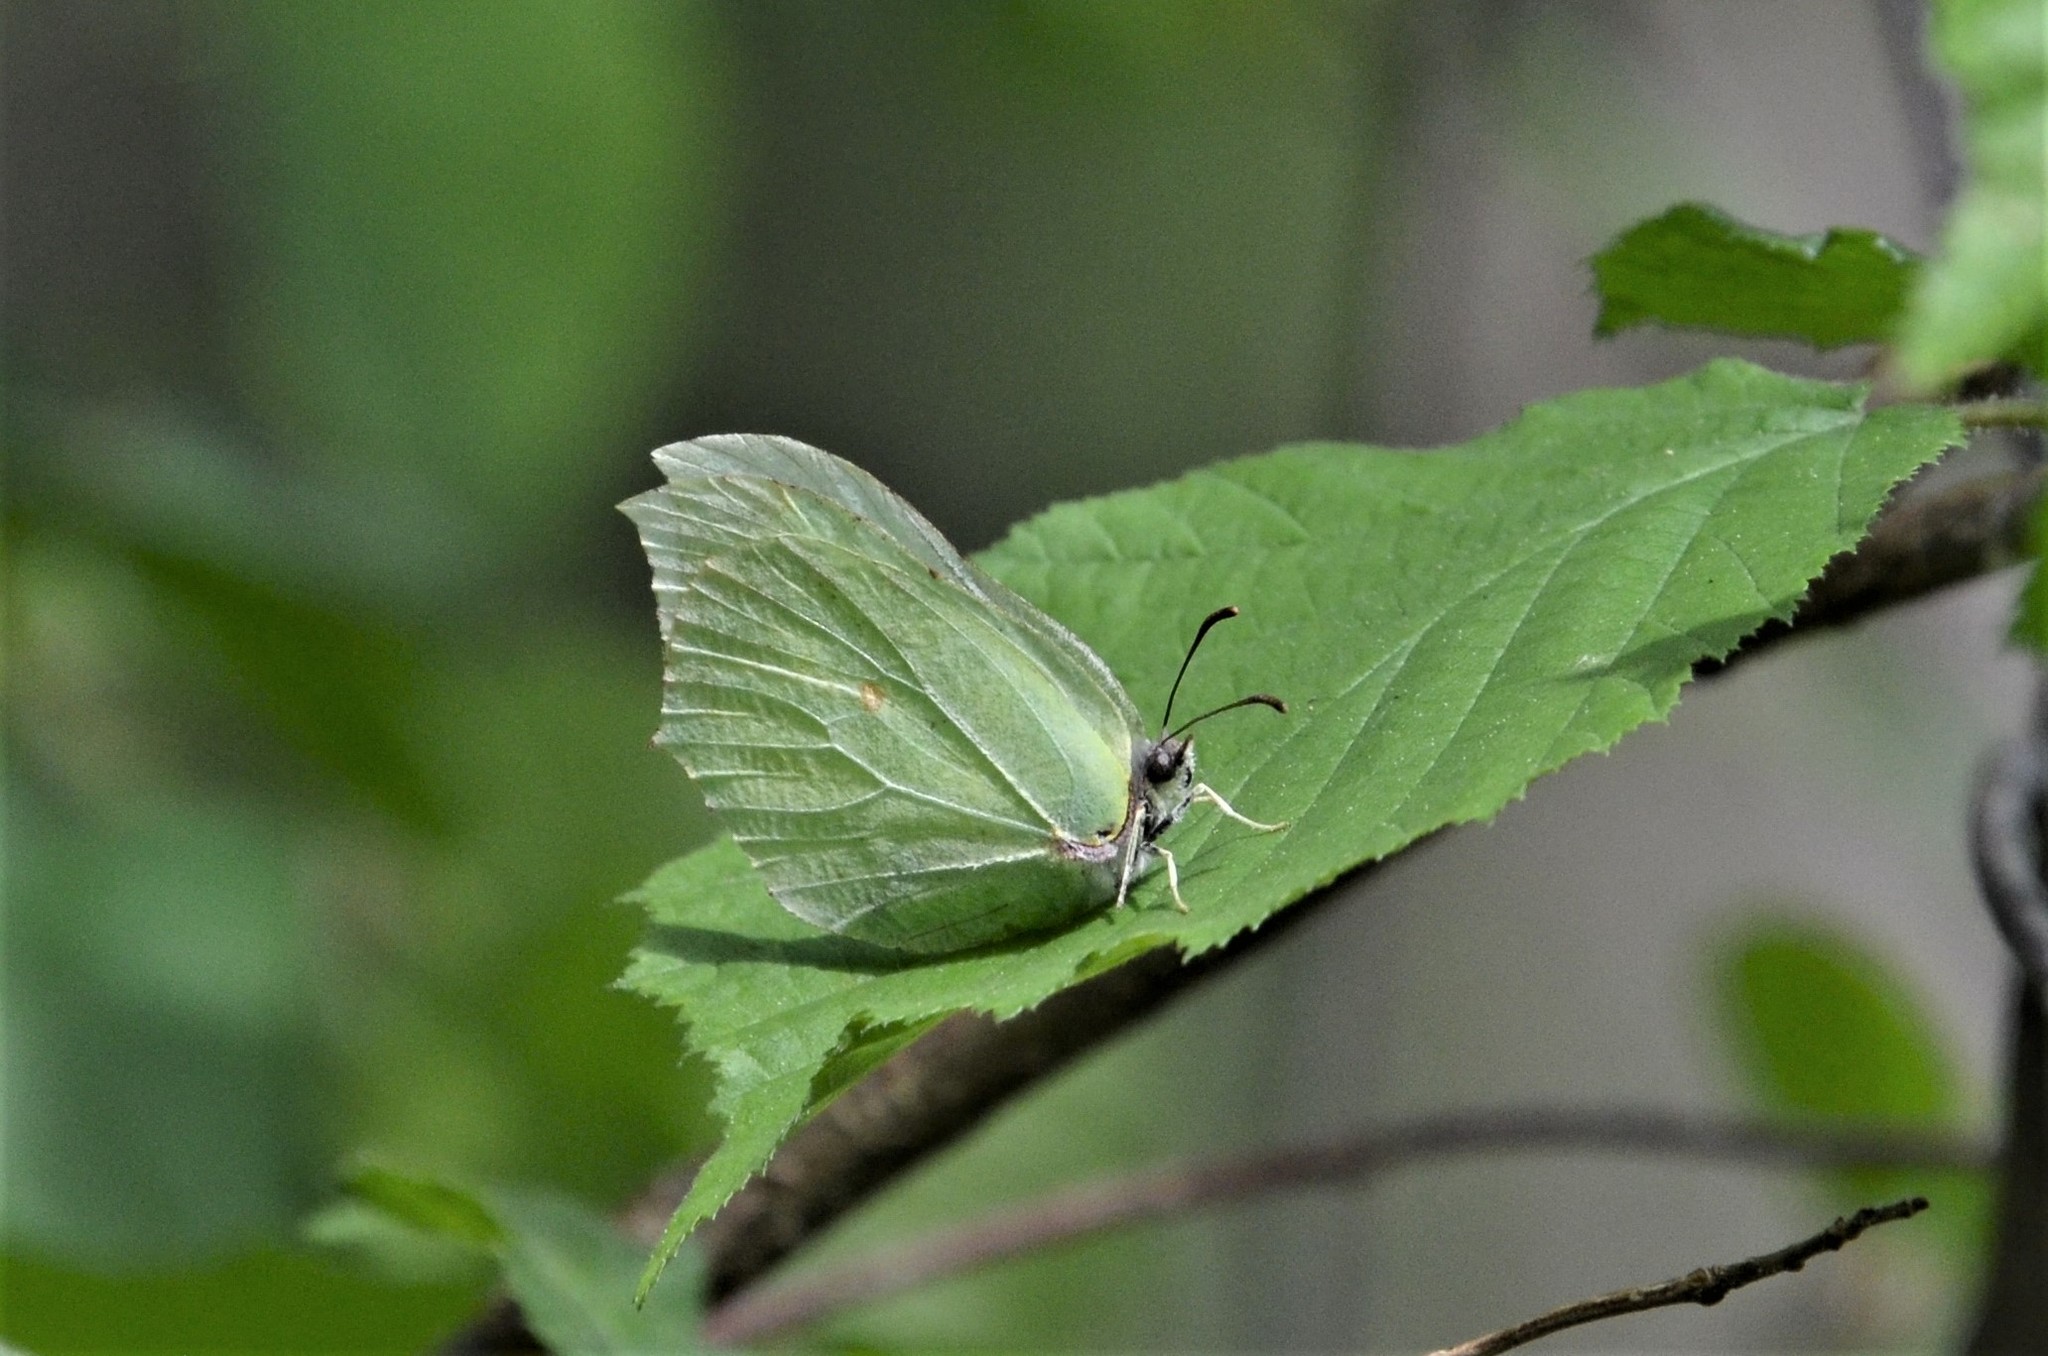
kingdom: Animalia
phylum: Arthropoda
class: Insecta
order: Lepidoptera
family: Pieridae
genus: Gonepteryx
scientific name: Gonepteryx rhamni
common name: Brimstone
